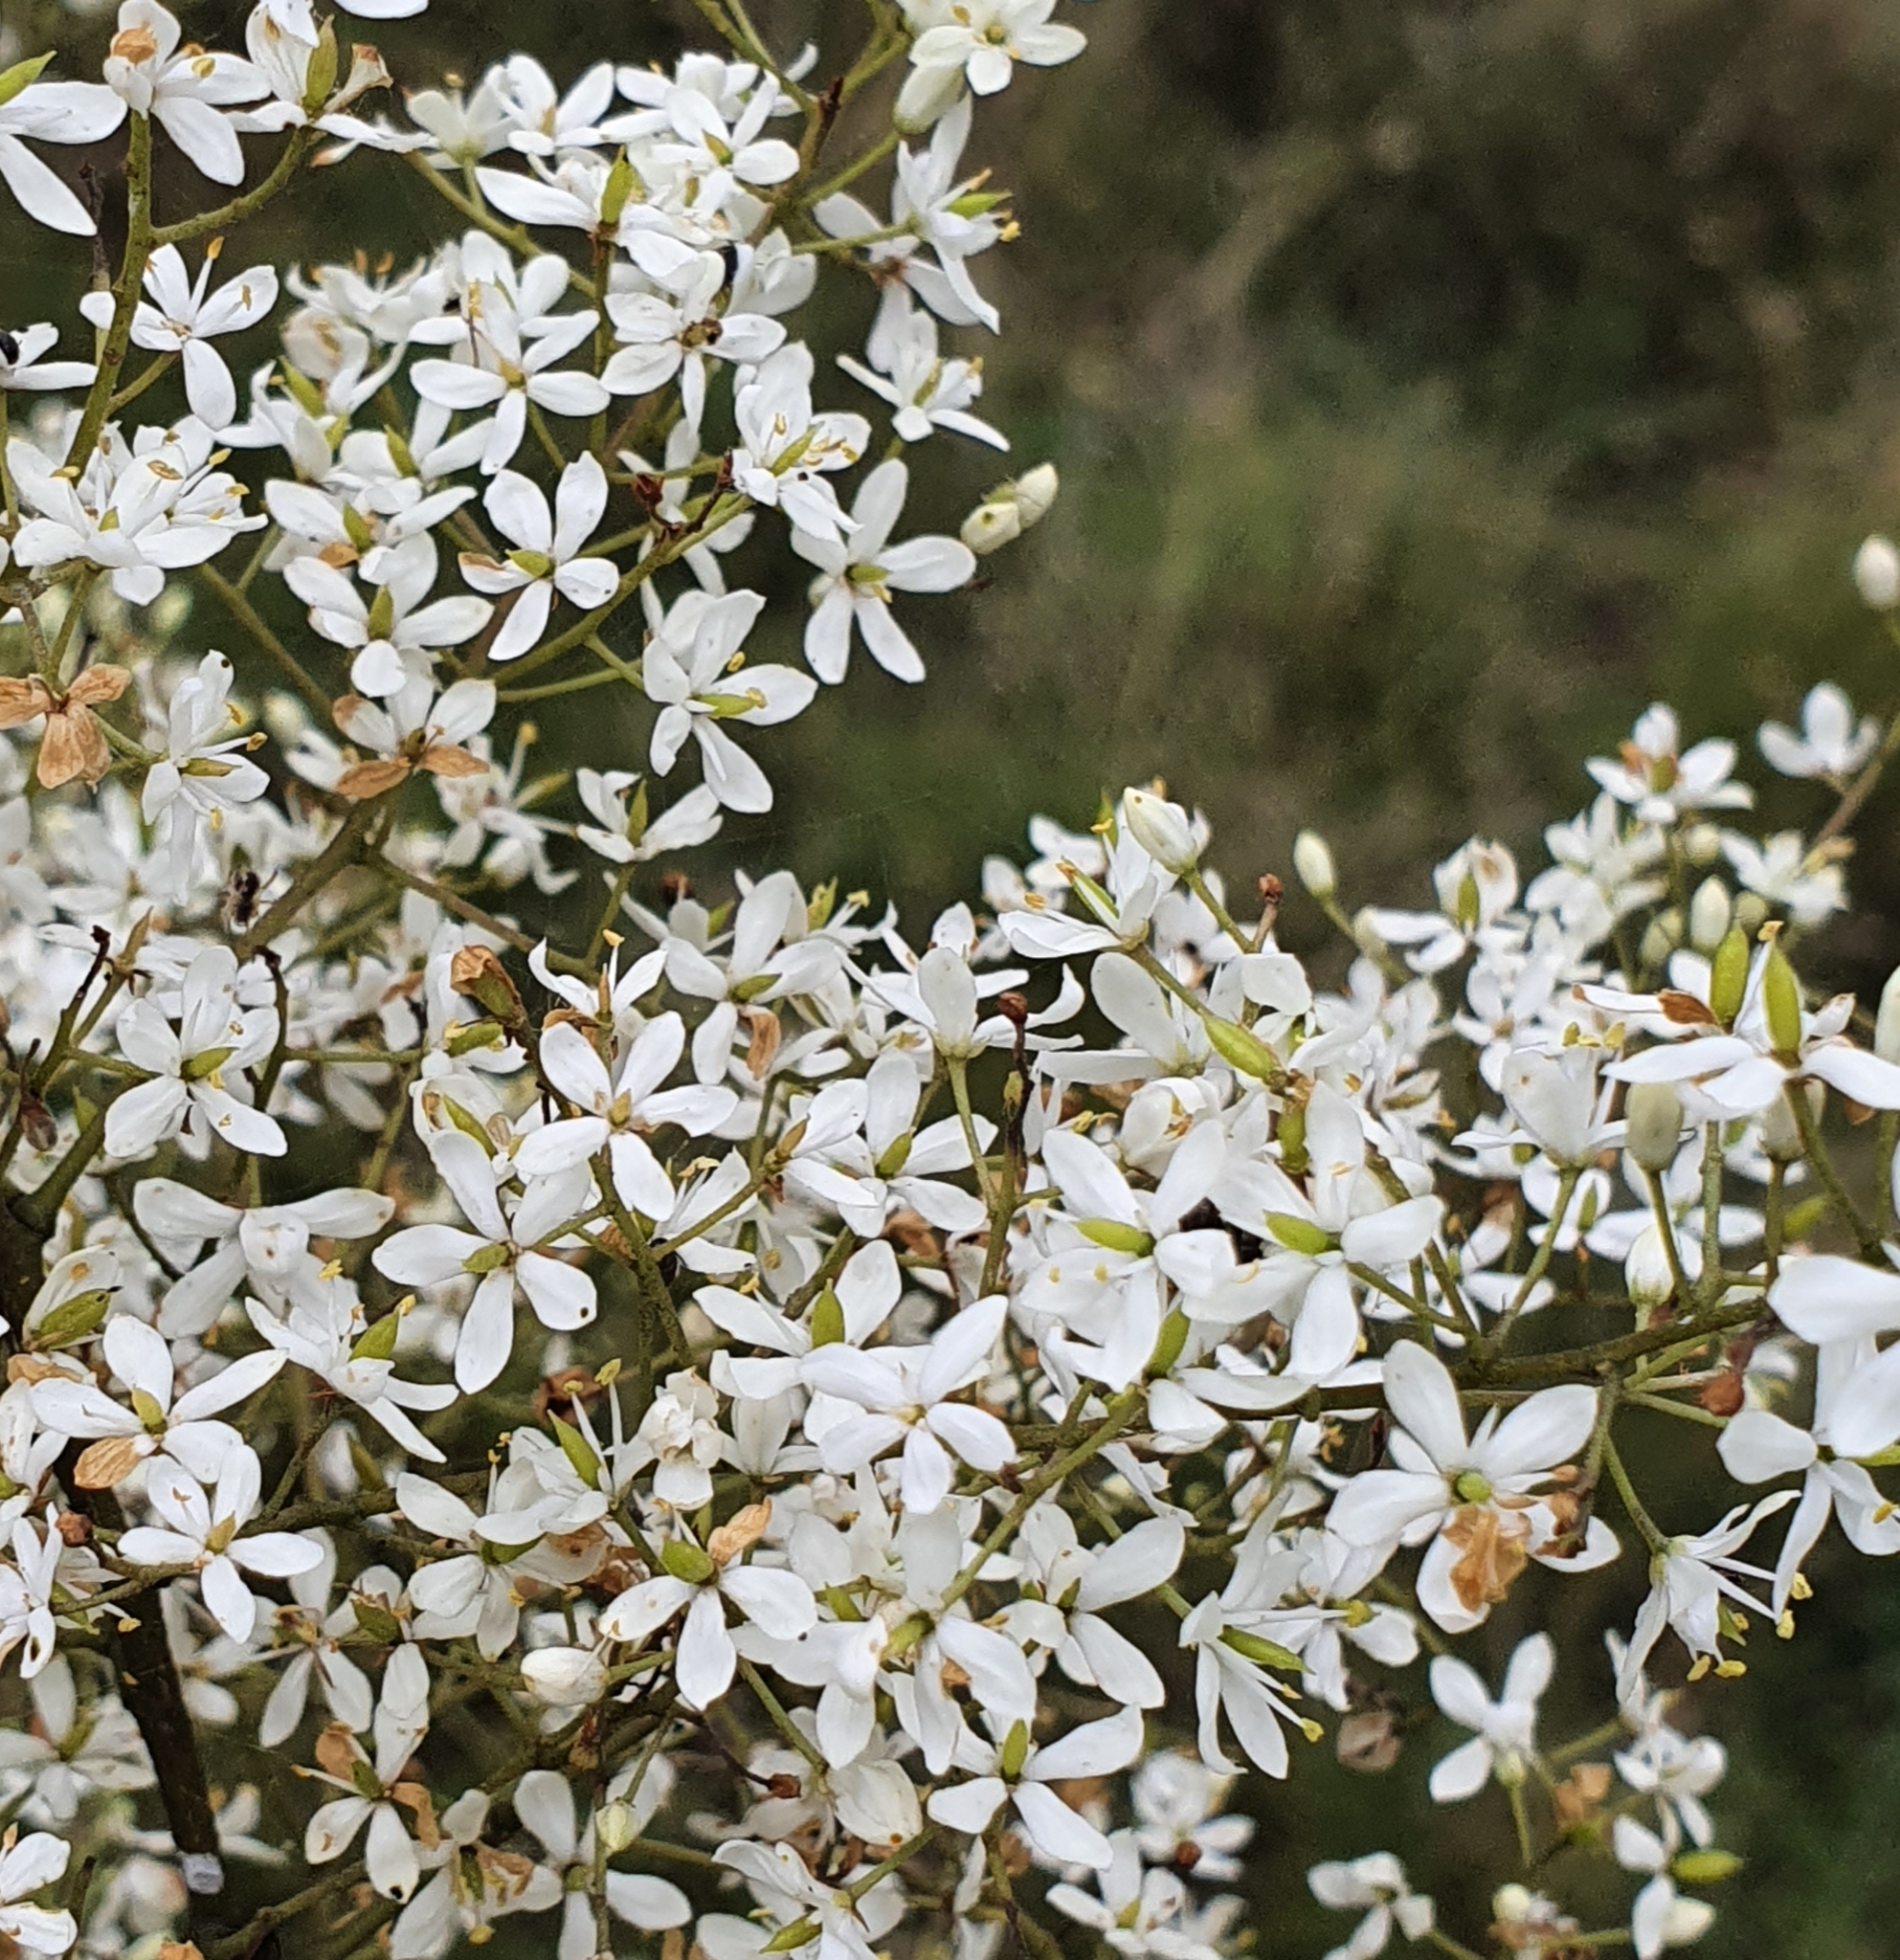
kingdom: Plantae
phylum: Tracheophyta
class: Magnoliopsida
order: Apiales
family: Pittosporaceae
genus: Bursaria
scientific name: Bursaria spinosa
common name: Australian blackthorn
